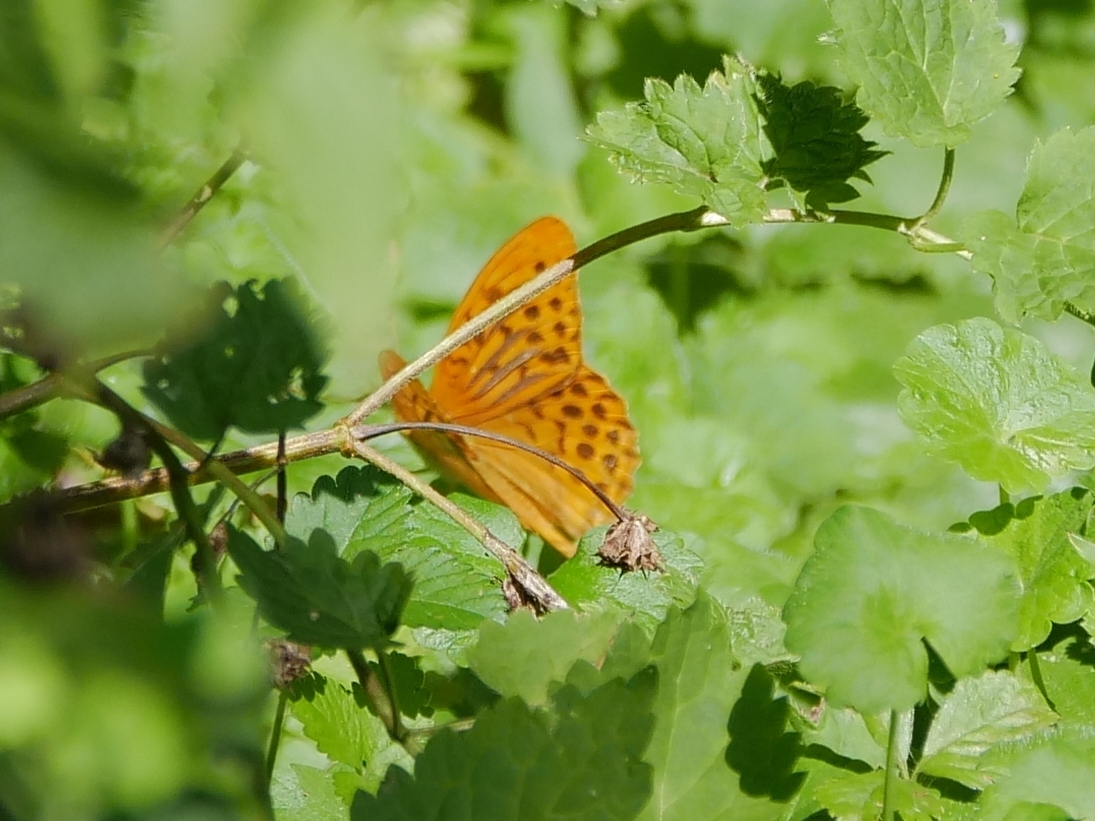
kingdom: Animalia
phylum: Arthropoda
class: Insecta
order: Lepidoptera
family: Nymphalidae
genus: Argynnis
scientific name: Argynnis paphia
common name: Silver-washed fritillary
